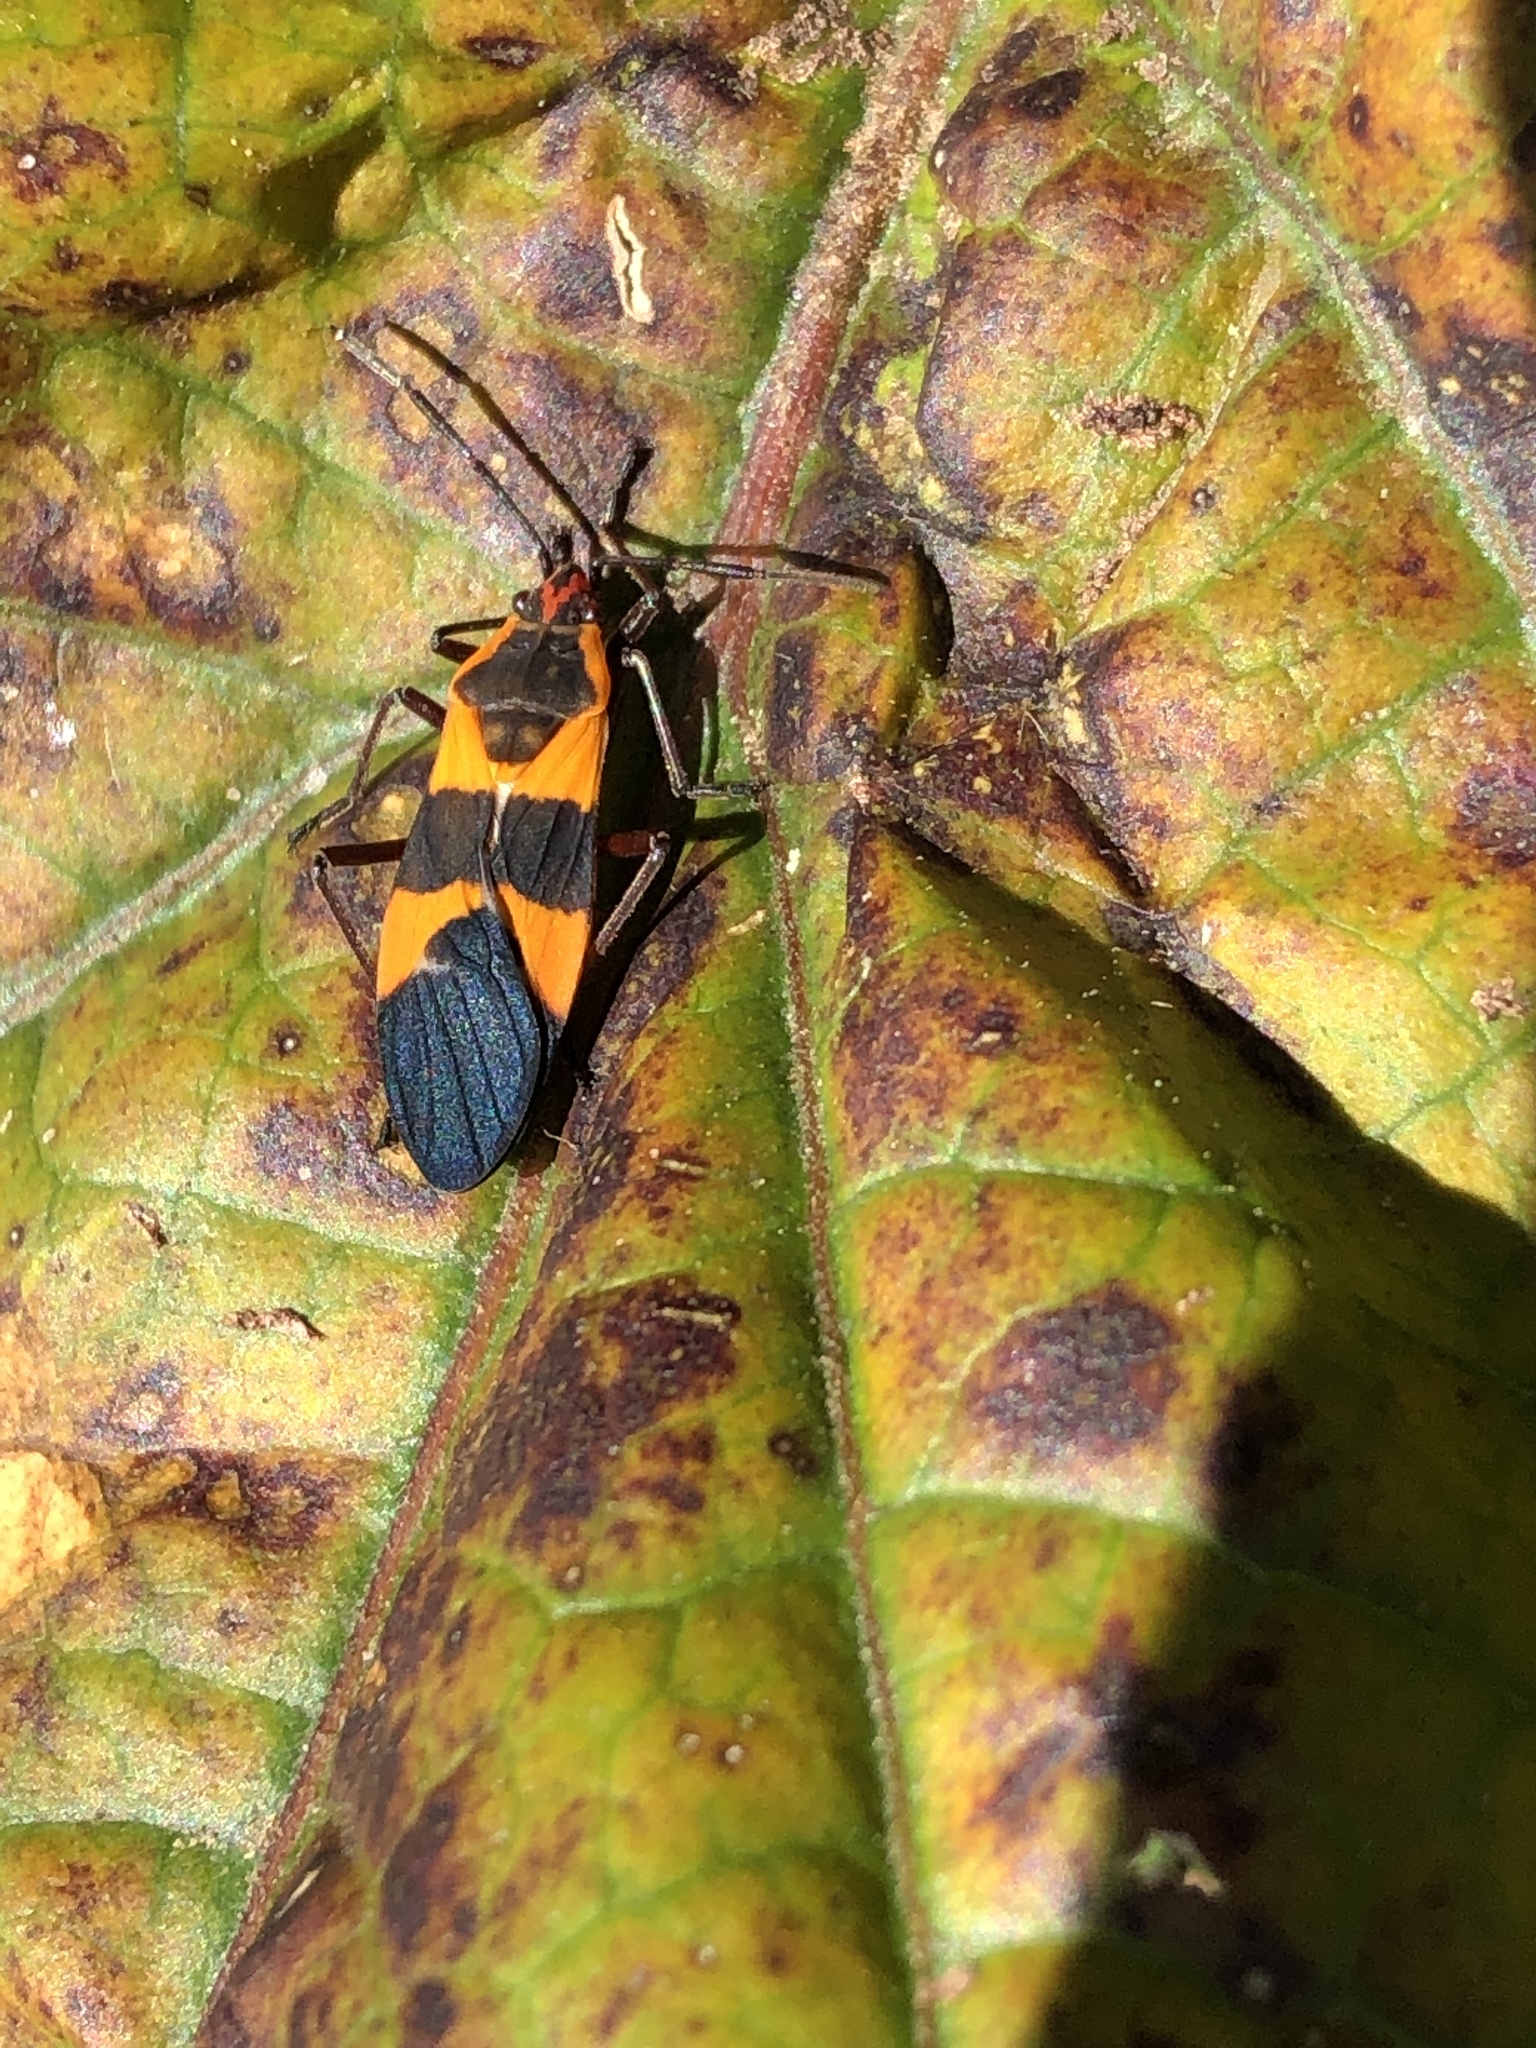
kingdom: Animalia
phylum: Arthropoda
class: Insecta
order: Hemiptera
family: Lygaeidae
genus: Oncopeltus
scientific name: Oncopeltus fasciatus
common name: Large milkweed bug
